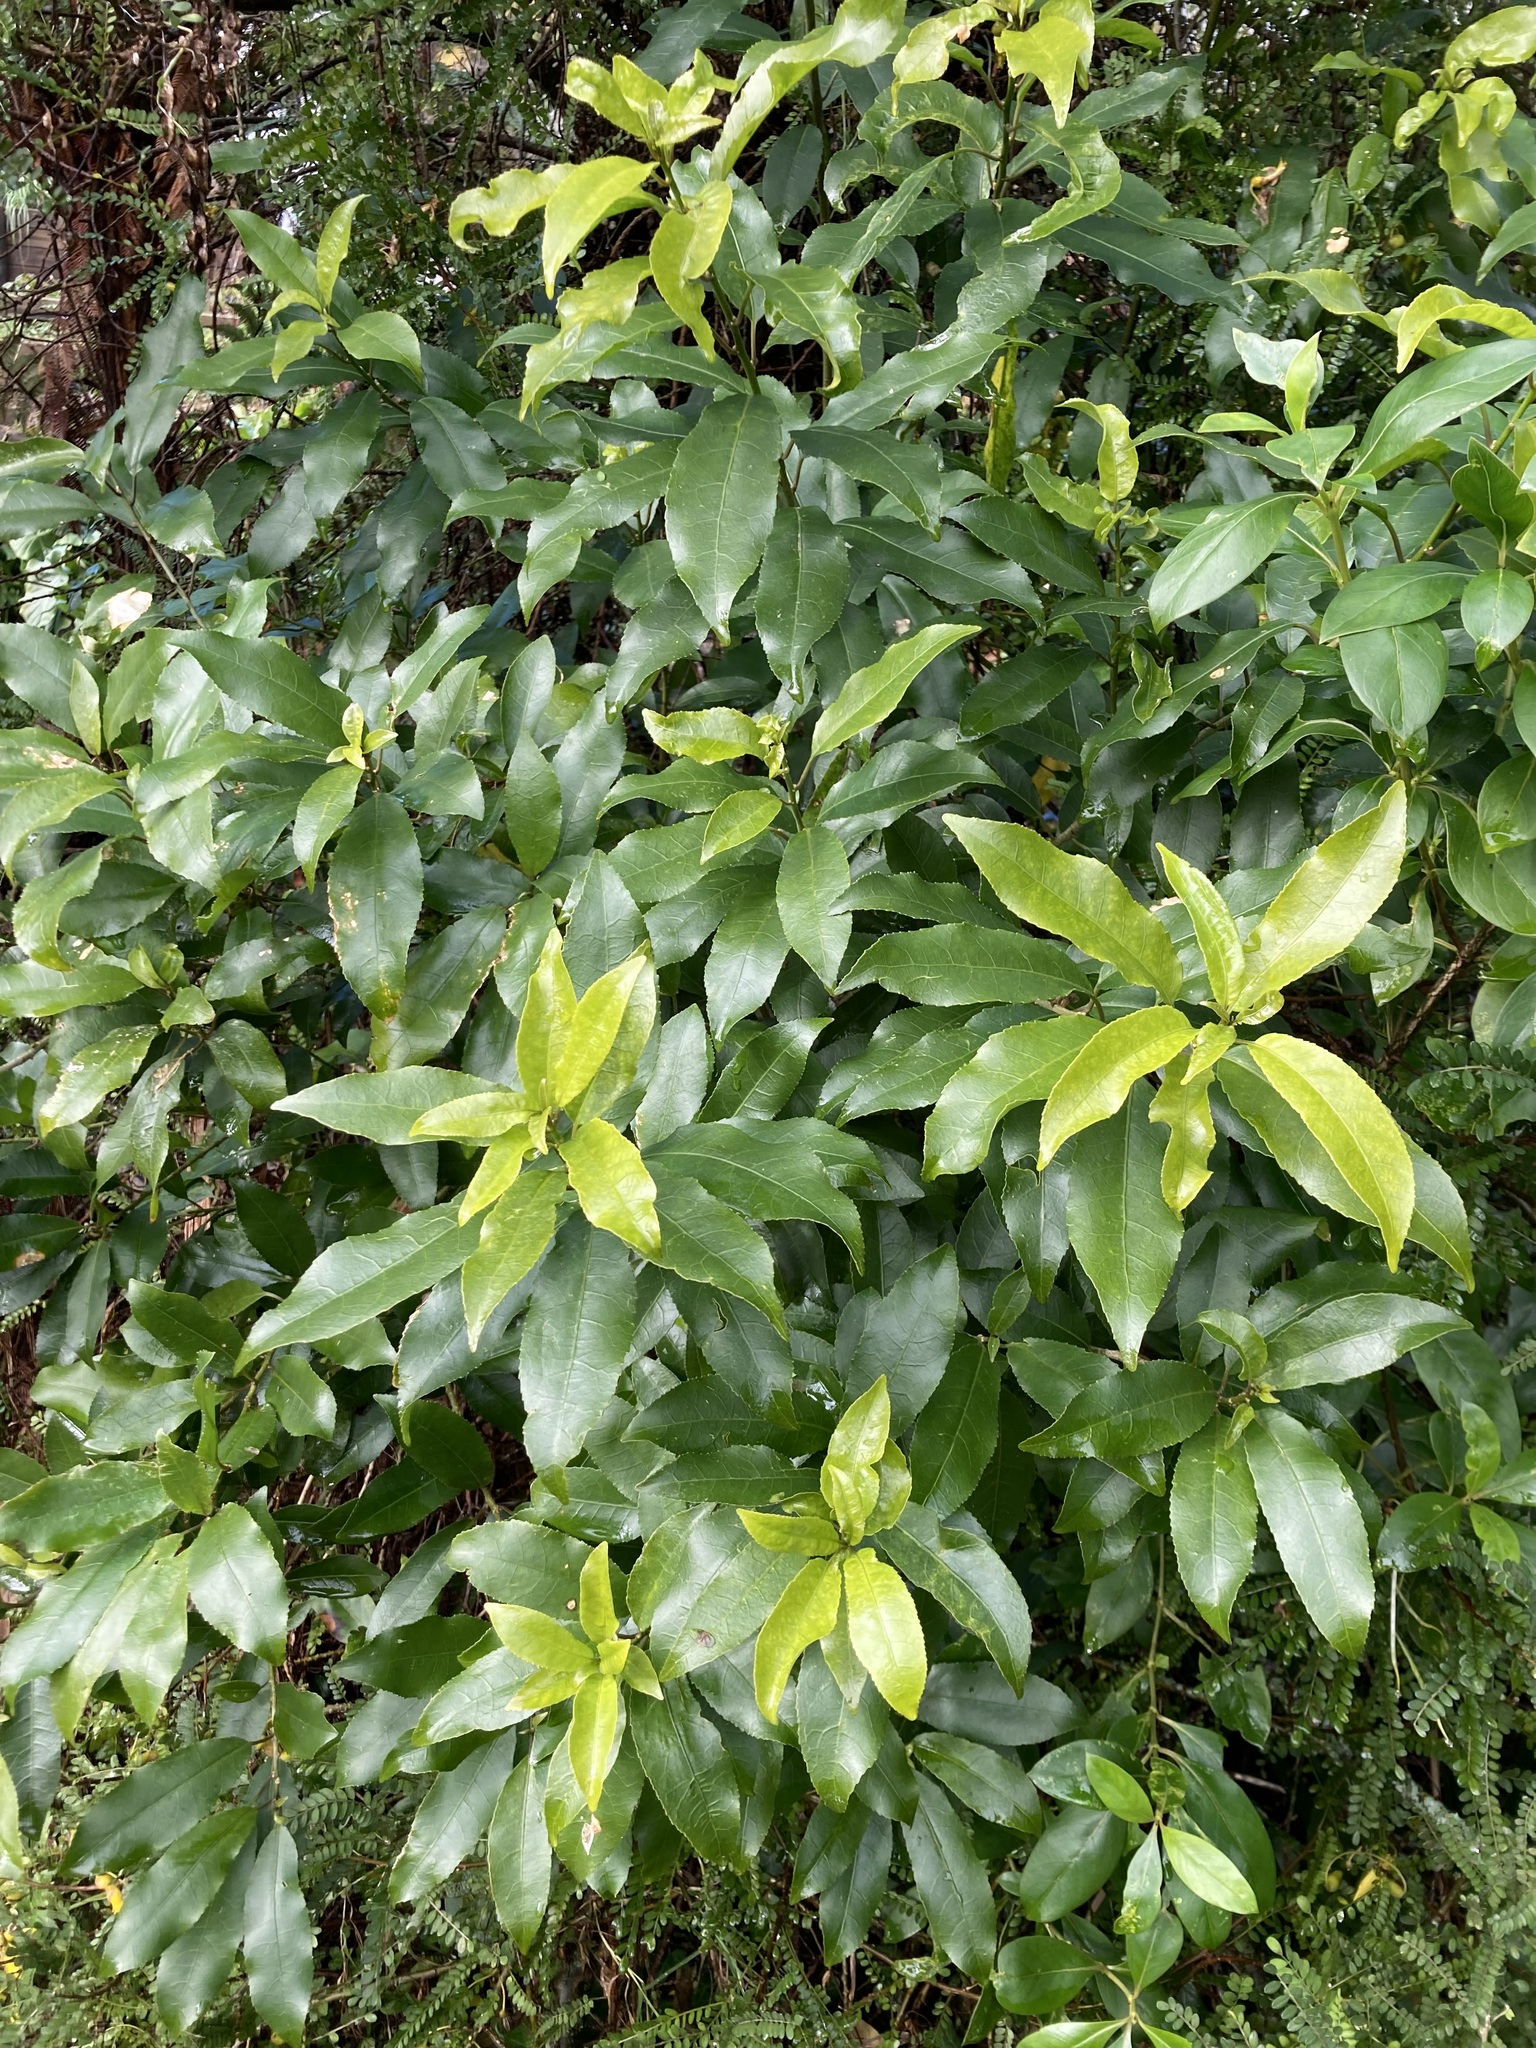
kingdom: Plantae
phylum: Tracheophyta
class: Magnoliopsida
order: Malpighiales
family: Violaceae
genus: Melicytus
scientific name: Melicytus ramiflorus
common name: Mahoe
